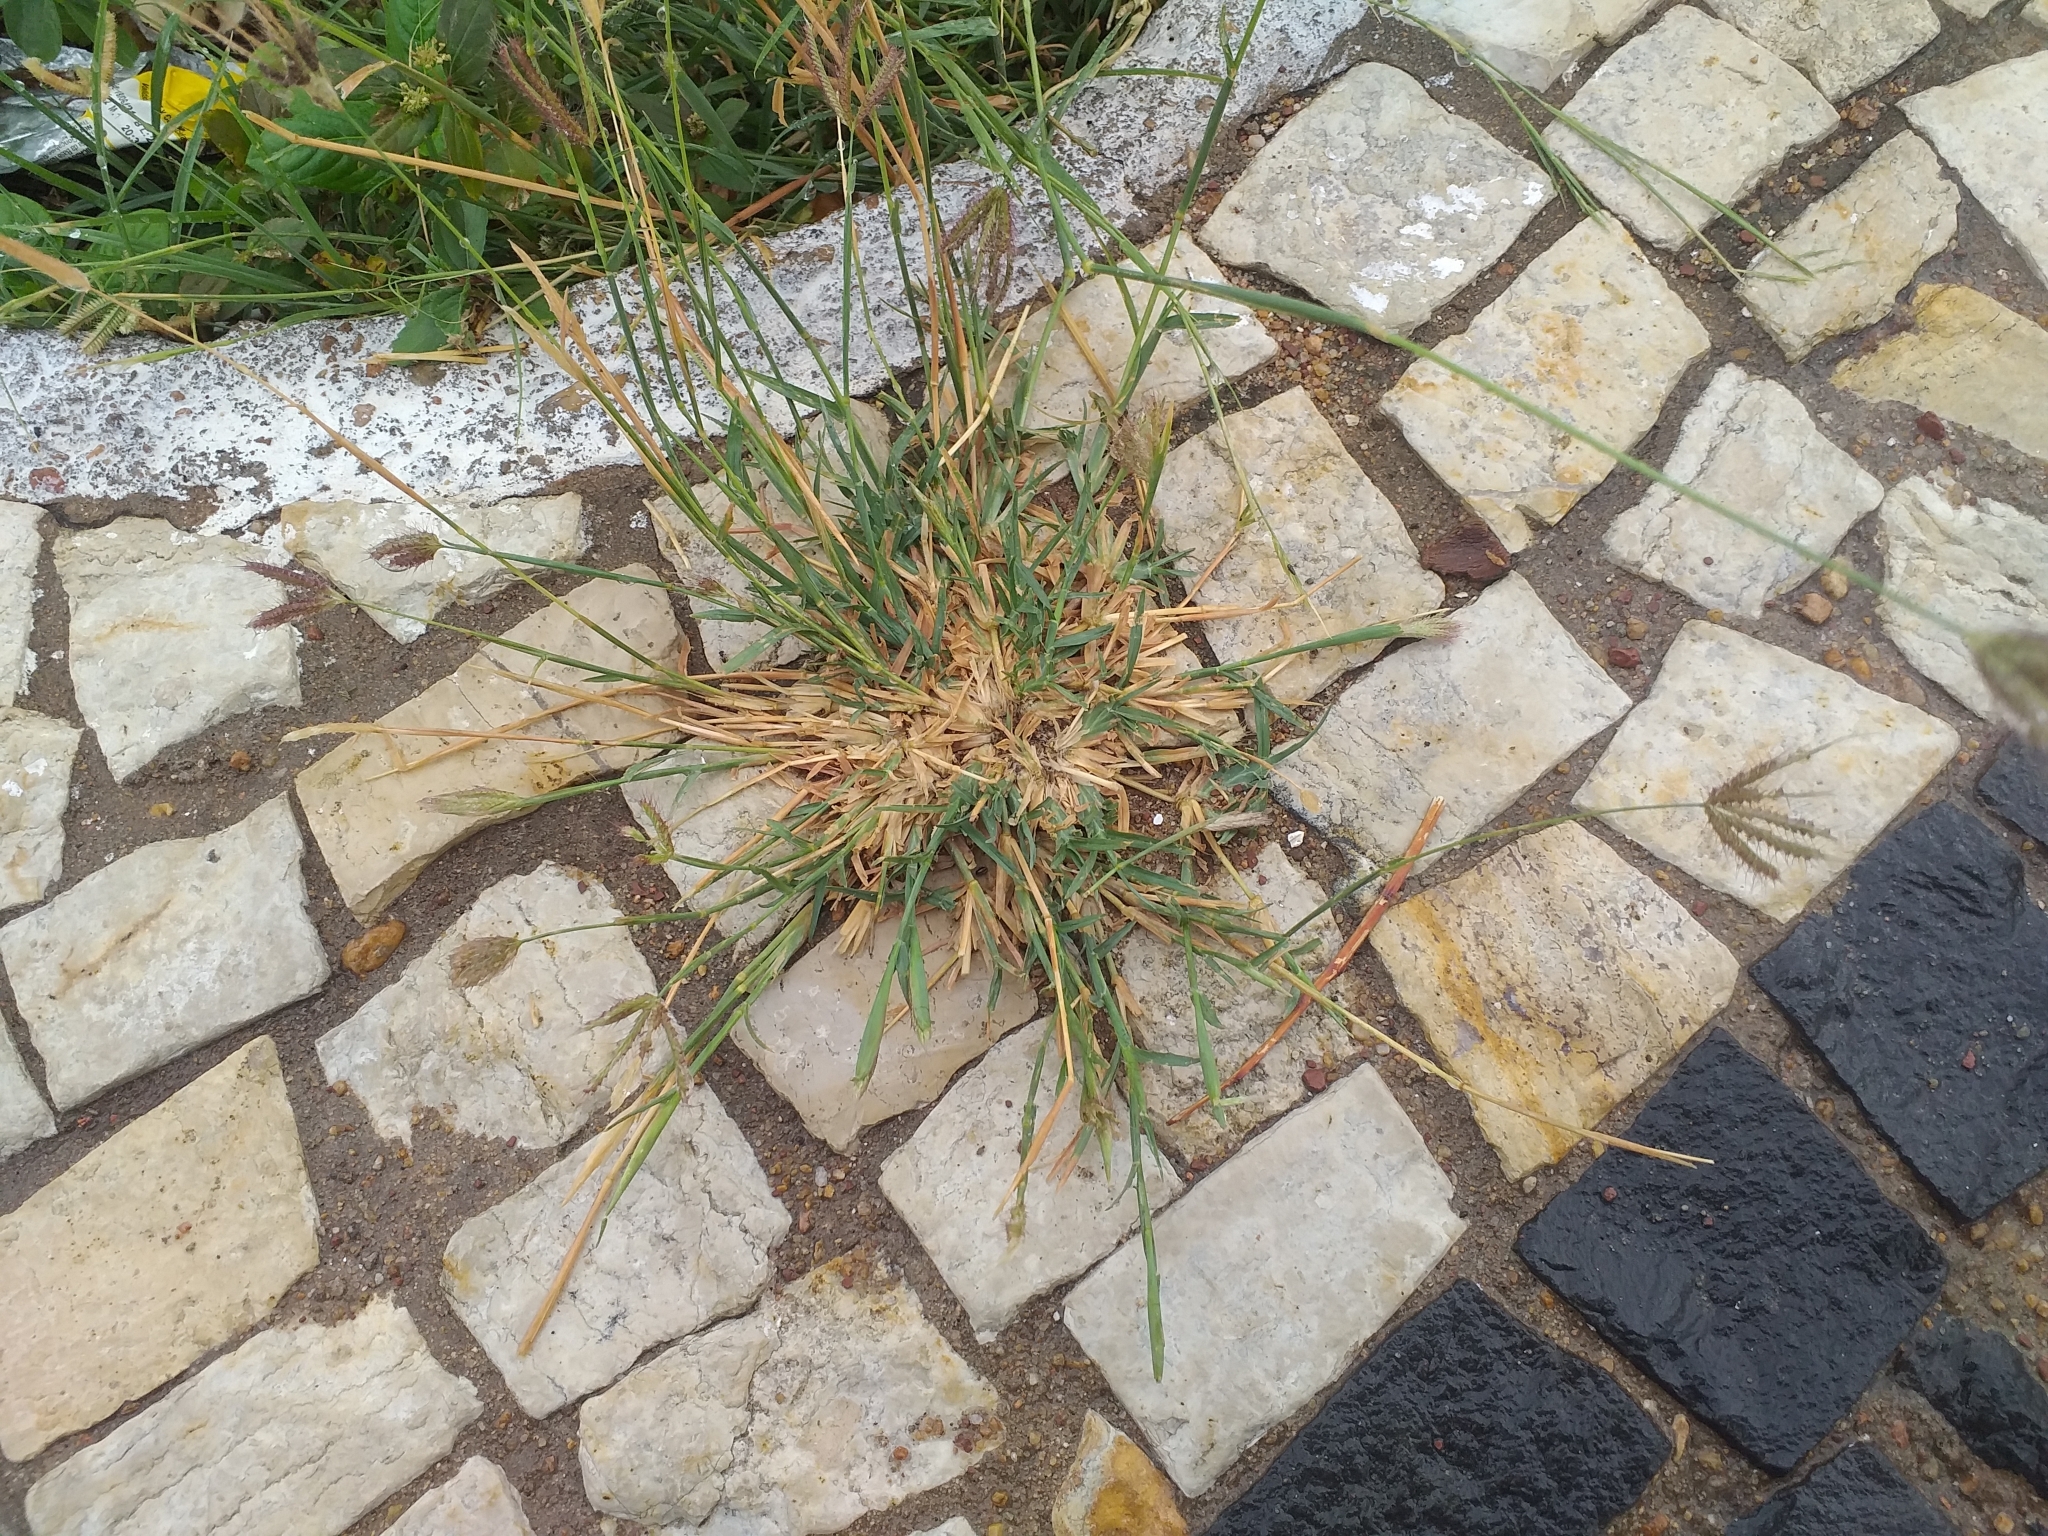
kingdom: Plantae
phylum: Tracheophyta
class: Liliopsida
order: Poales
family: Poaceae
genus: Chloris
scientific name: Chloris barbata
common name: Swollen fingergrass
